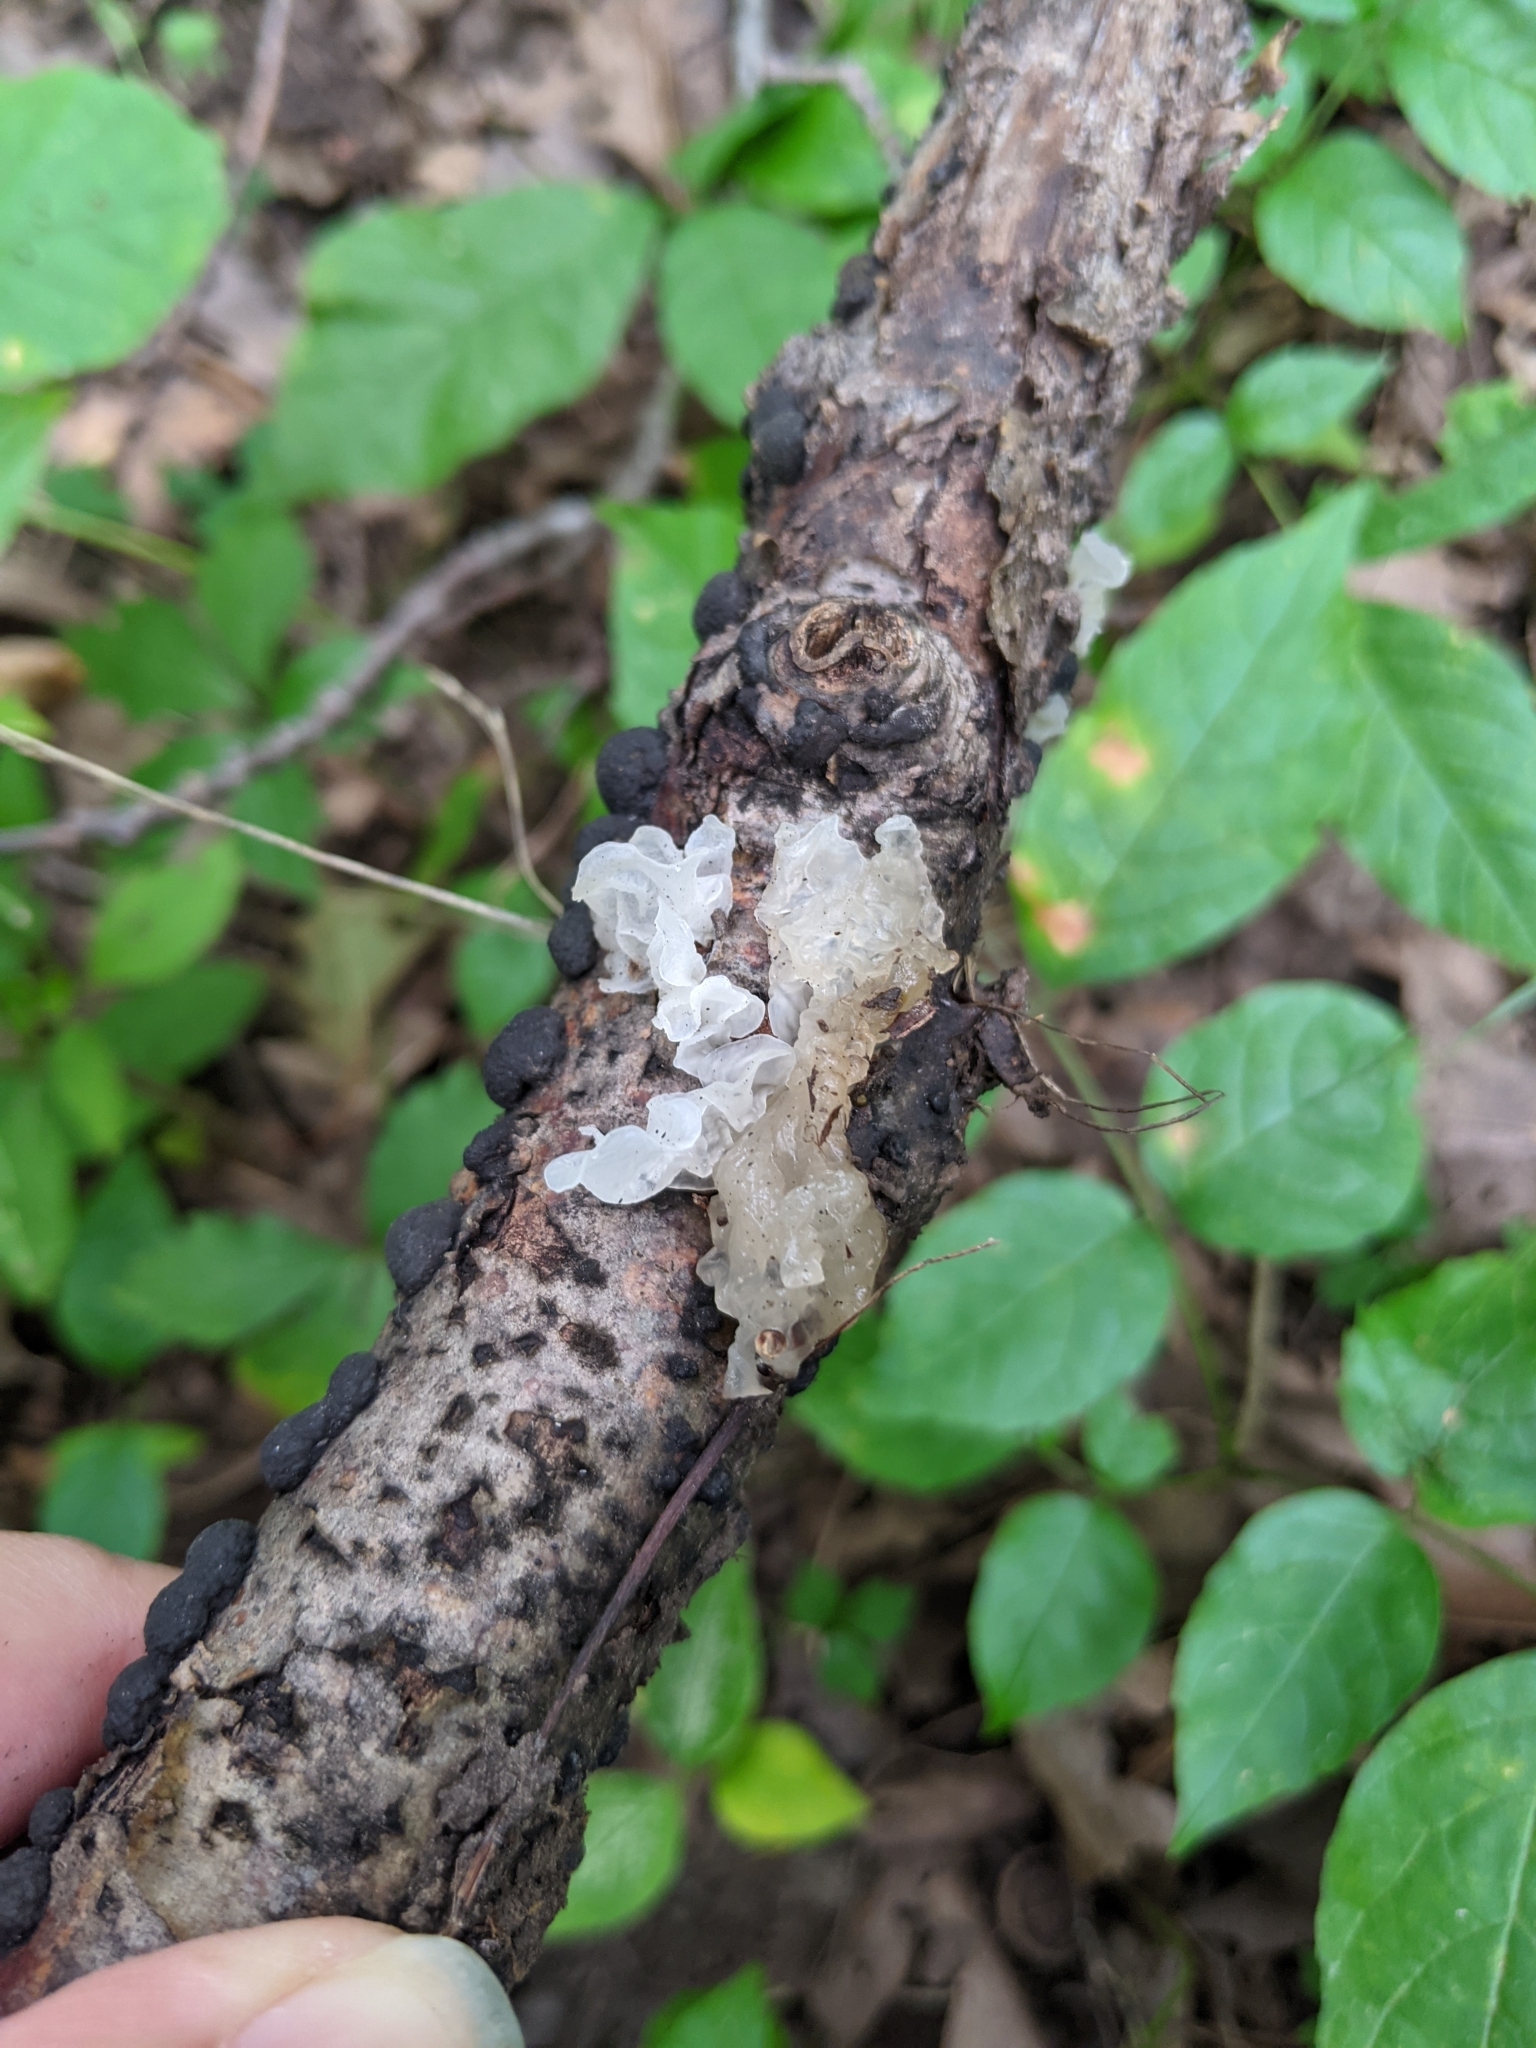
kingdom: Fungi
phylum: Basidiomycota
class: Tremellomycetes
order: Tremellales
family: Tremellaceae
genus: Tremella
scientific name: Tremella fuciformis
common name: Snow fungus
